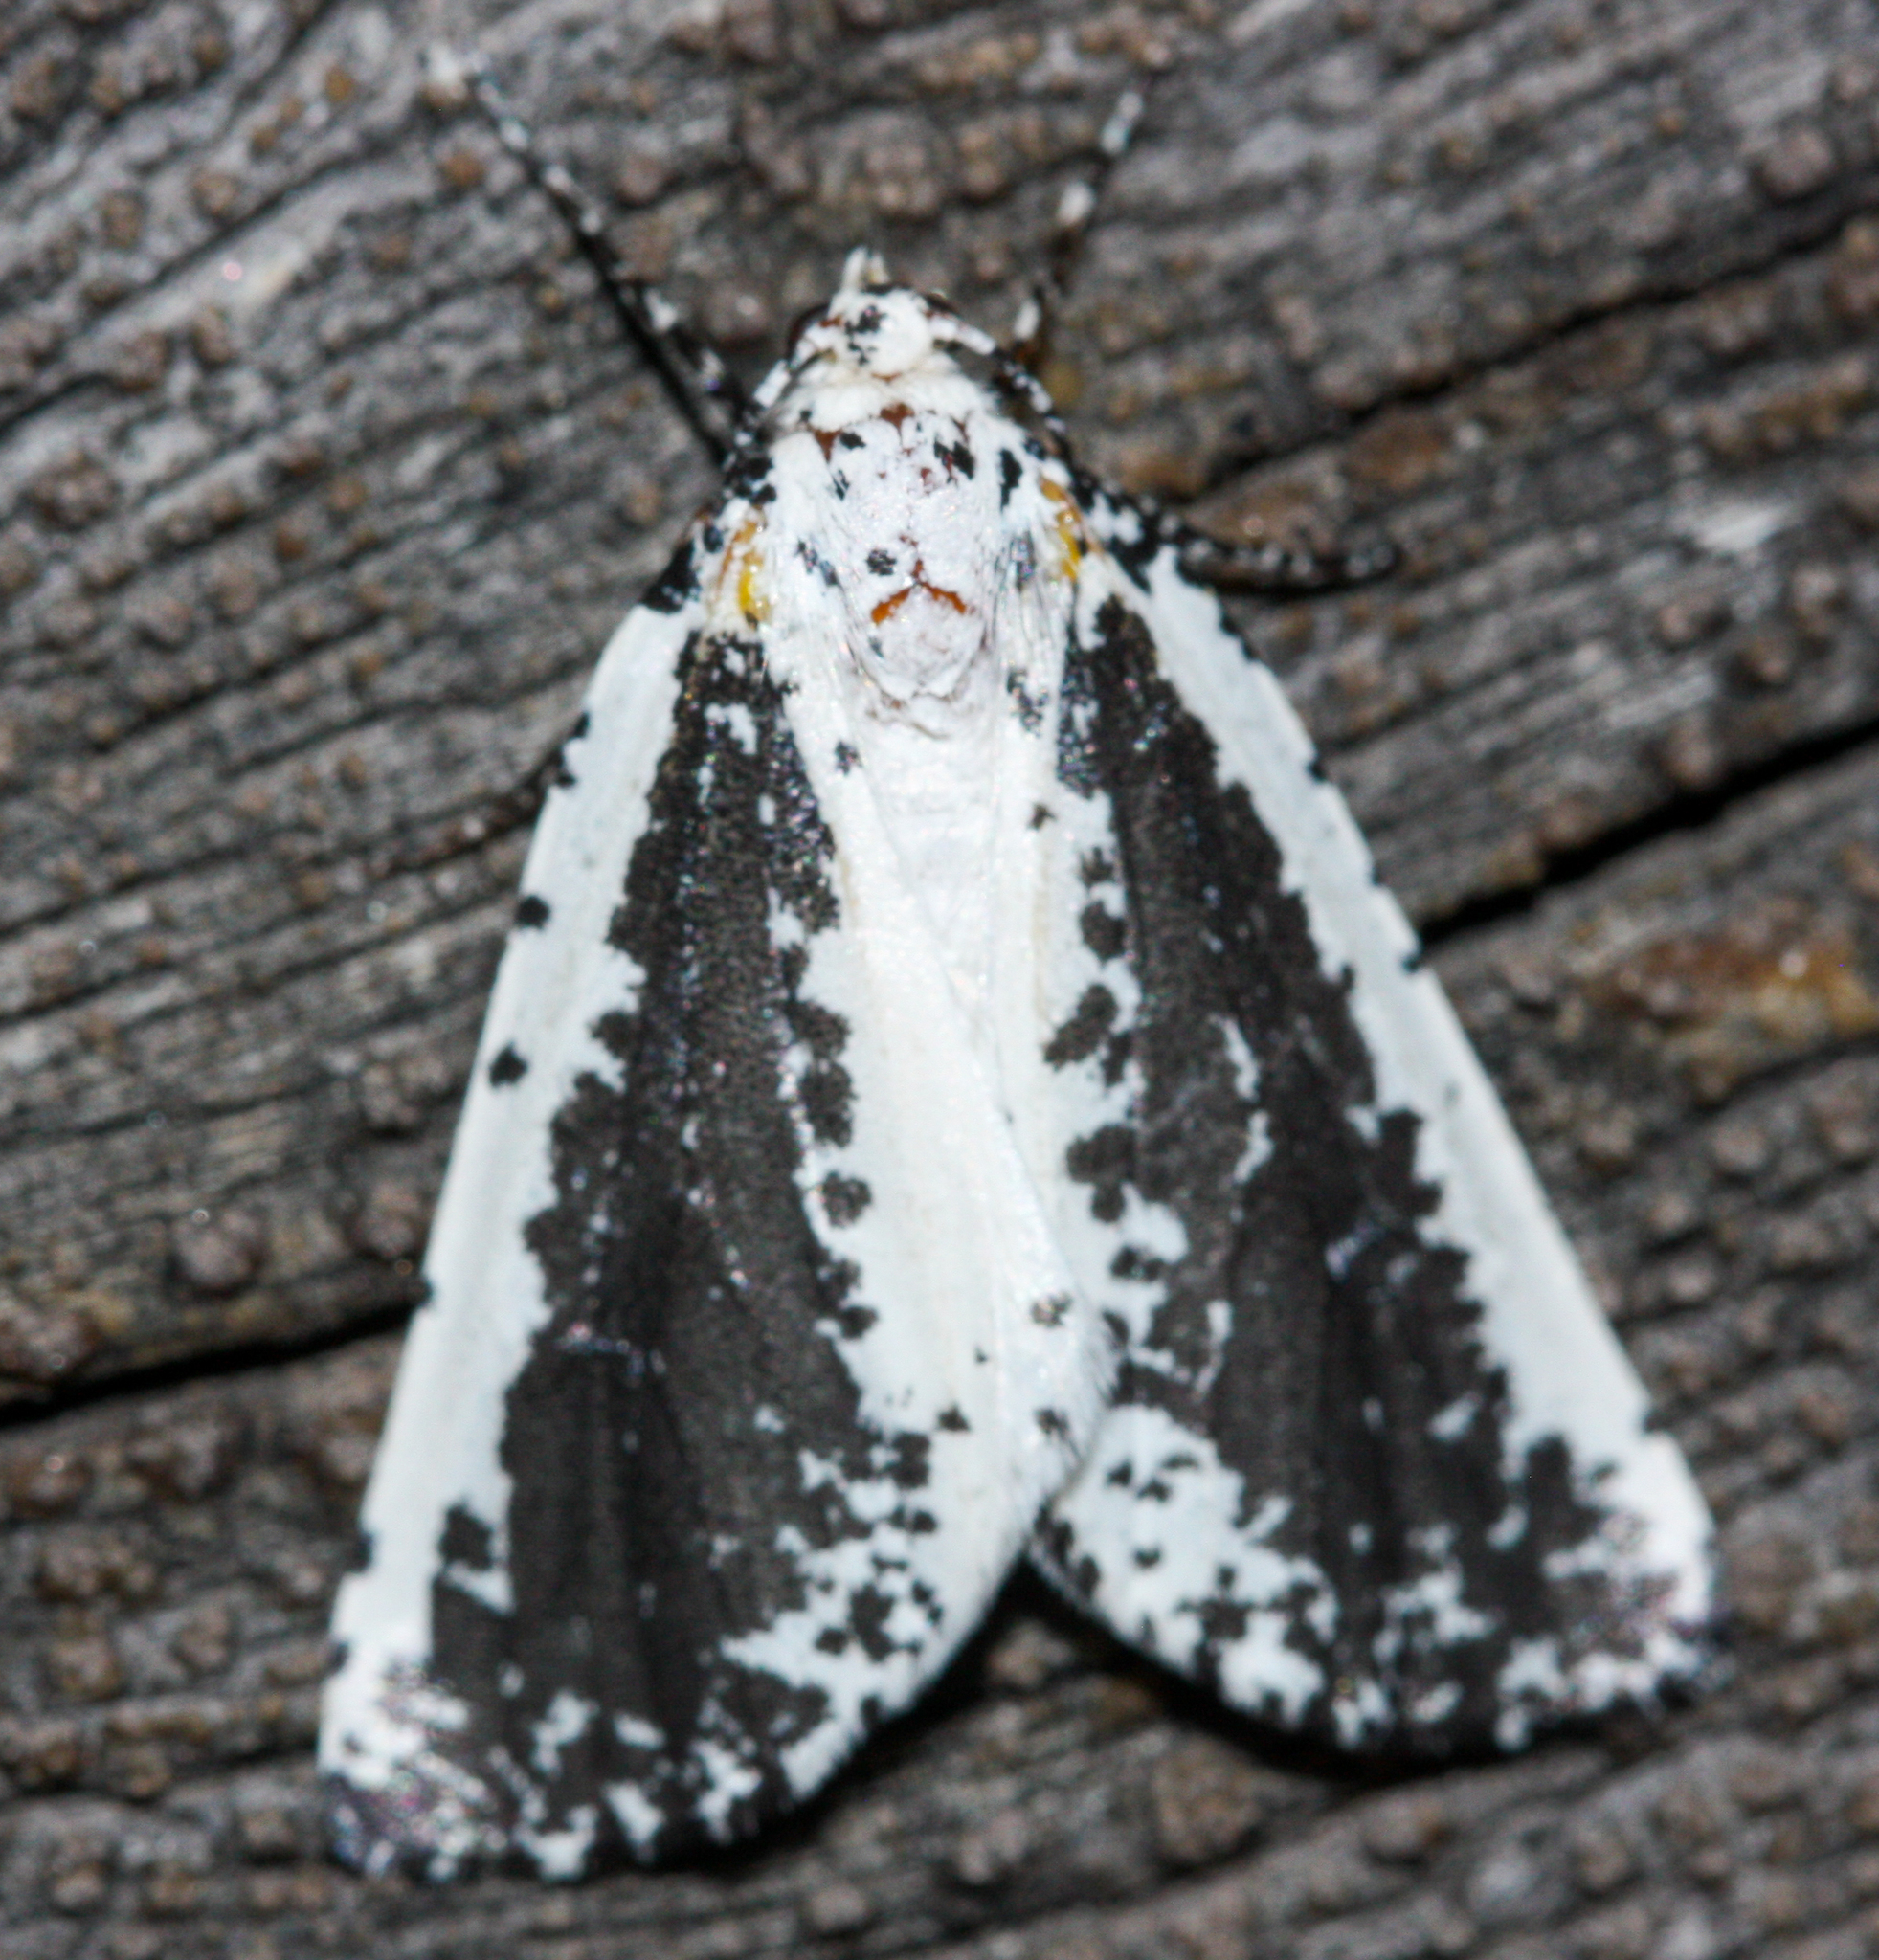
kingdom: Animalia
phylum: Arthropoda
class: Insecta
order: Lepidoptera
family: Geometridae
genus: Eucaterva
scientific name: Eucaterva variaria
